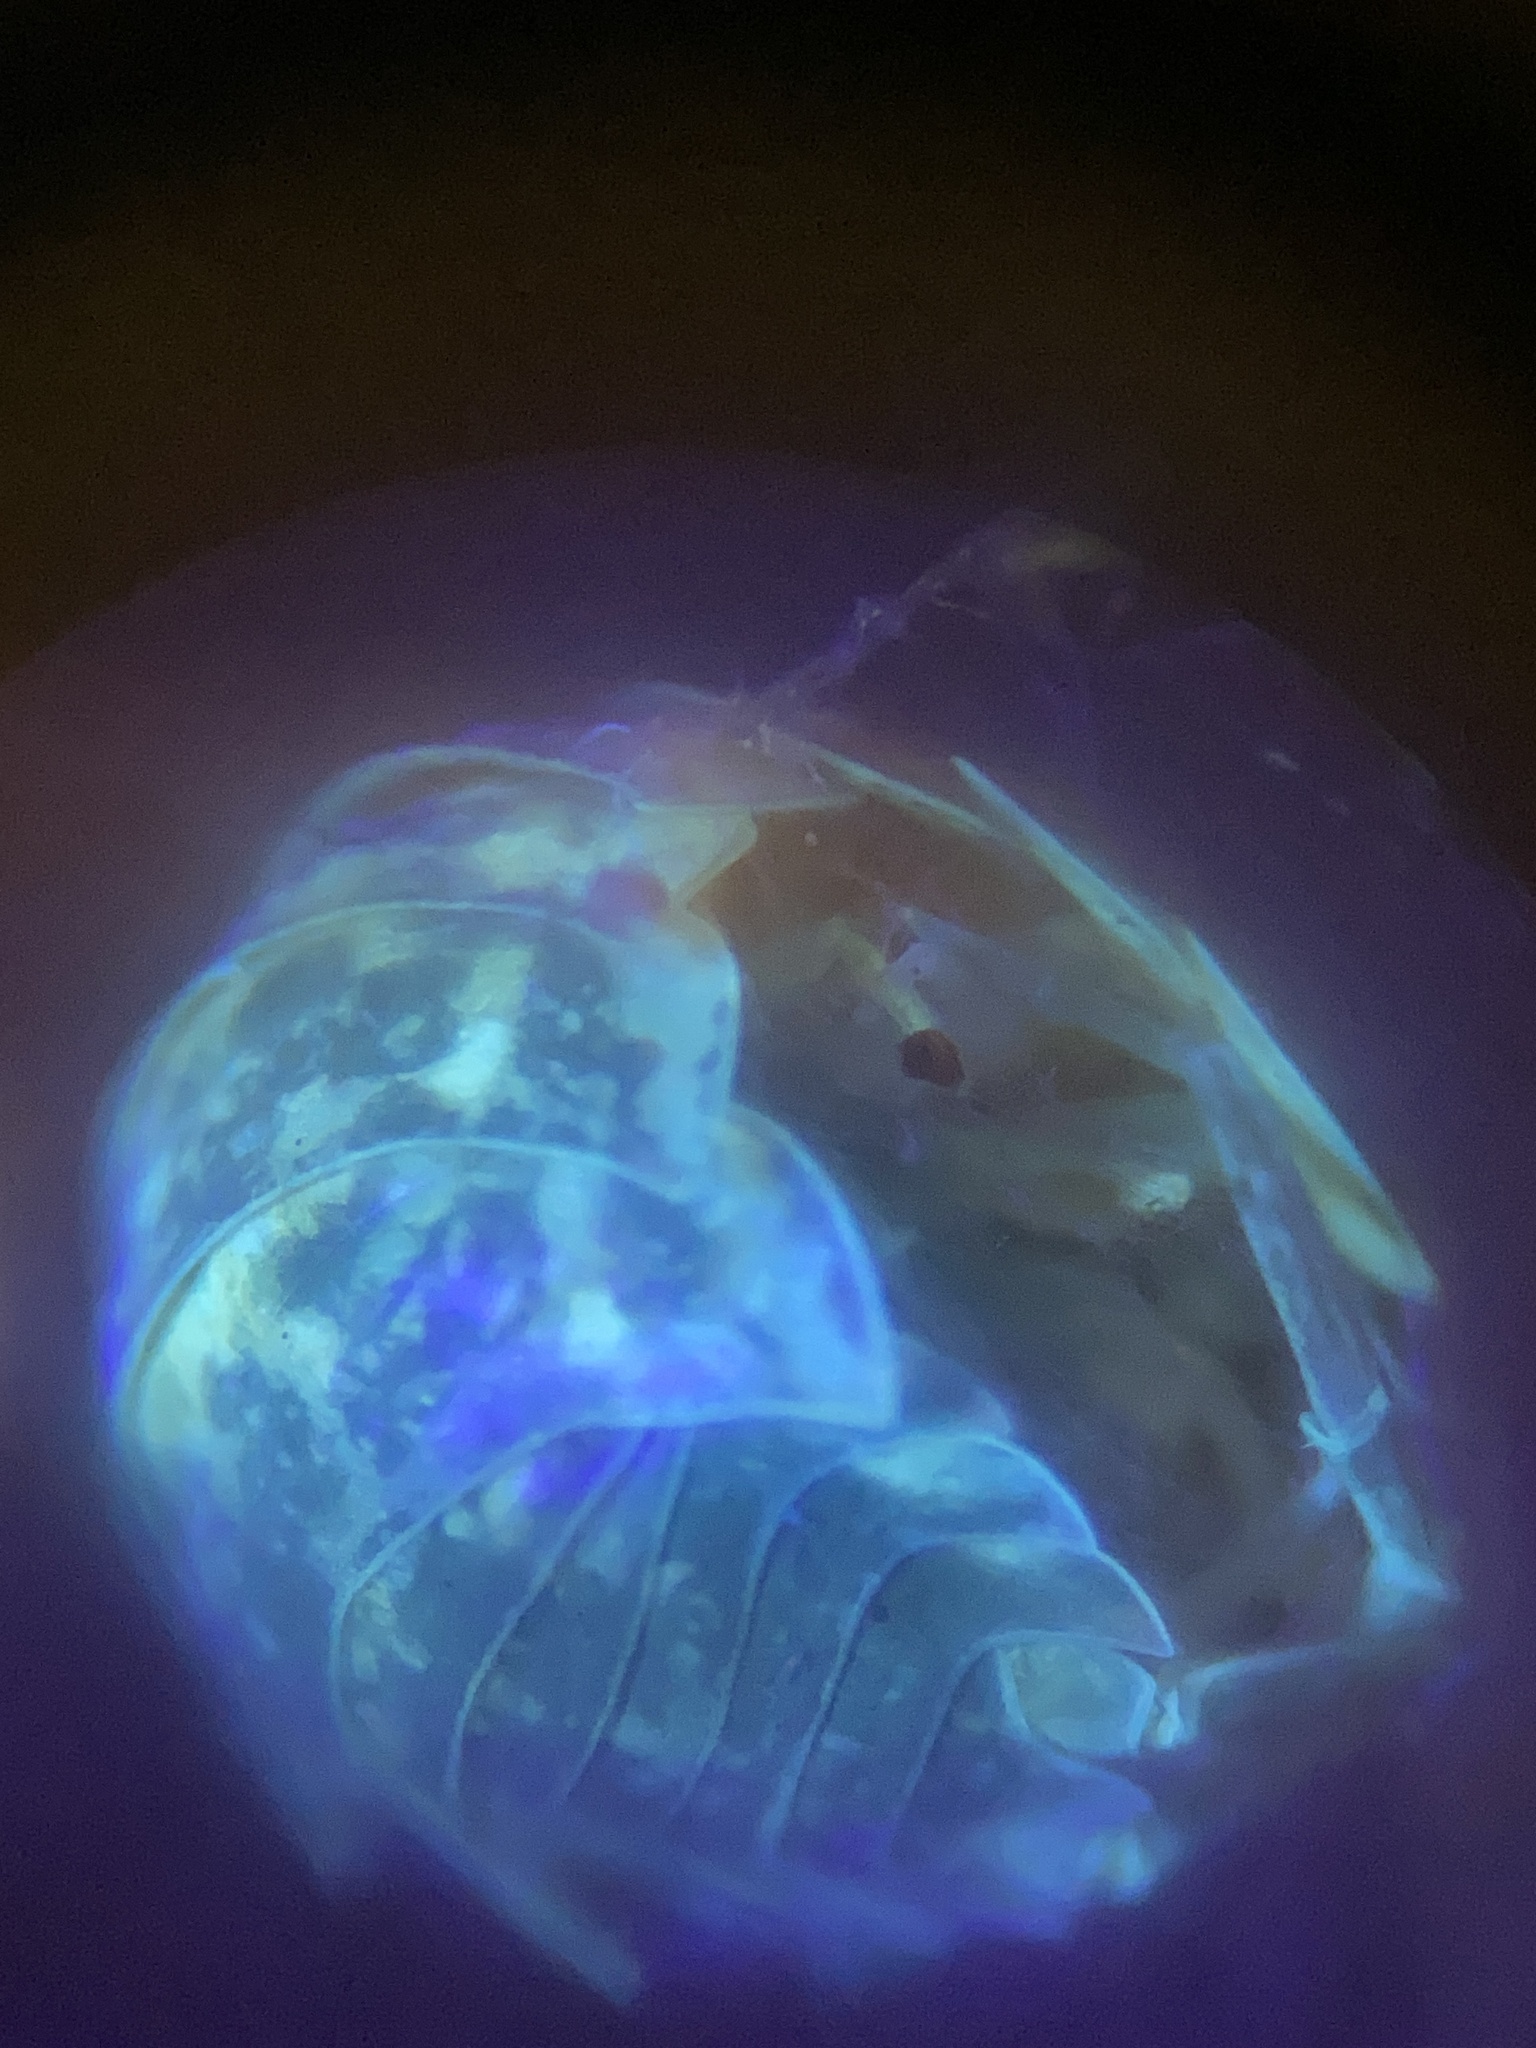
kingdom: Animalia
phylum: Arthropoda
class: Malacostraca
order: Isopoda
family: Trachelipodidae
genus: Trachelipus
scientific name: Trachelipus rathkii
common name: Isopod
